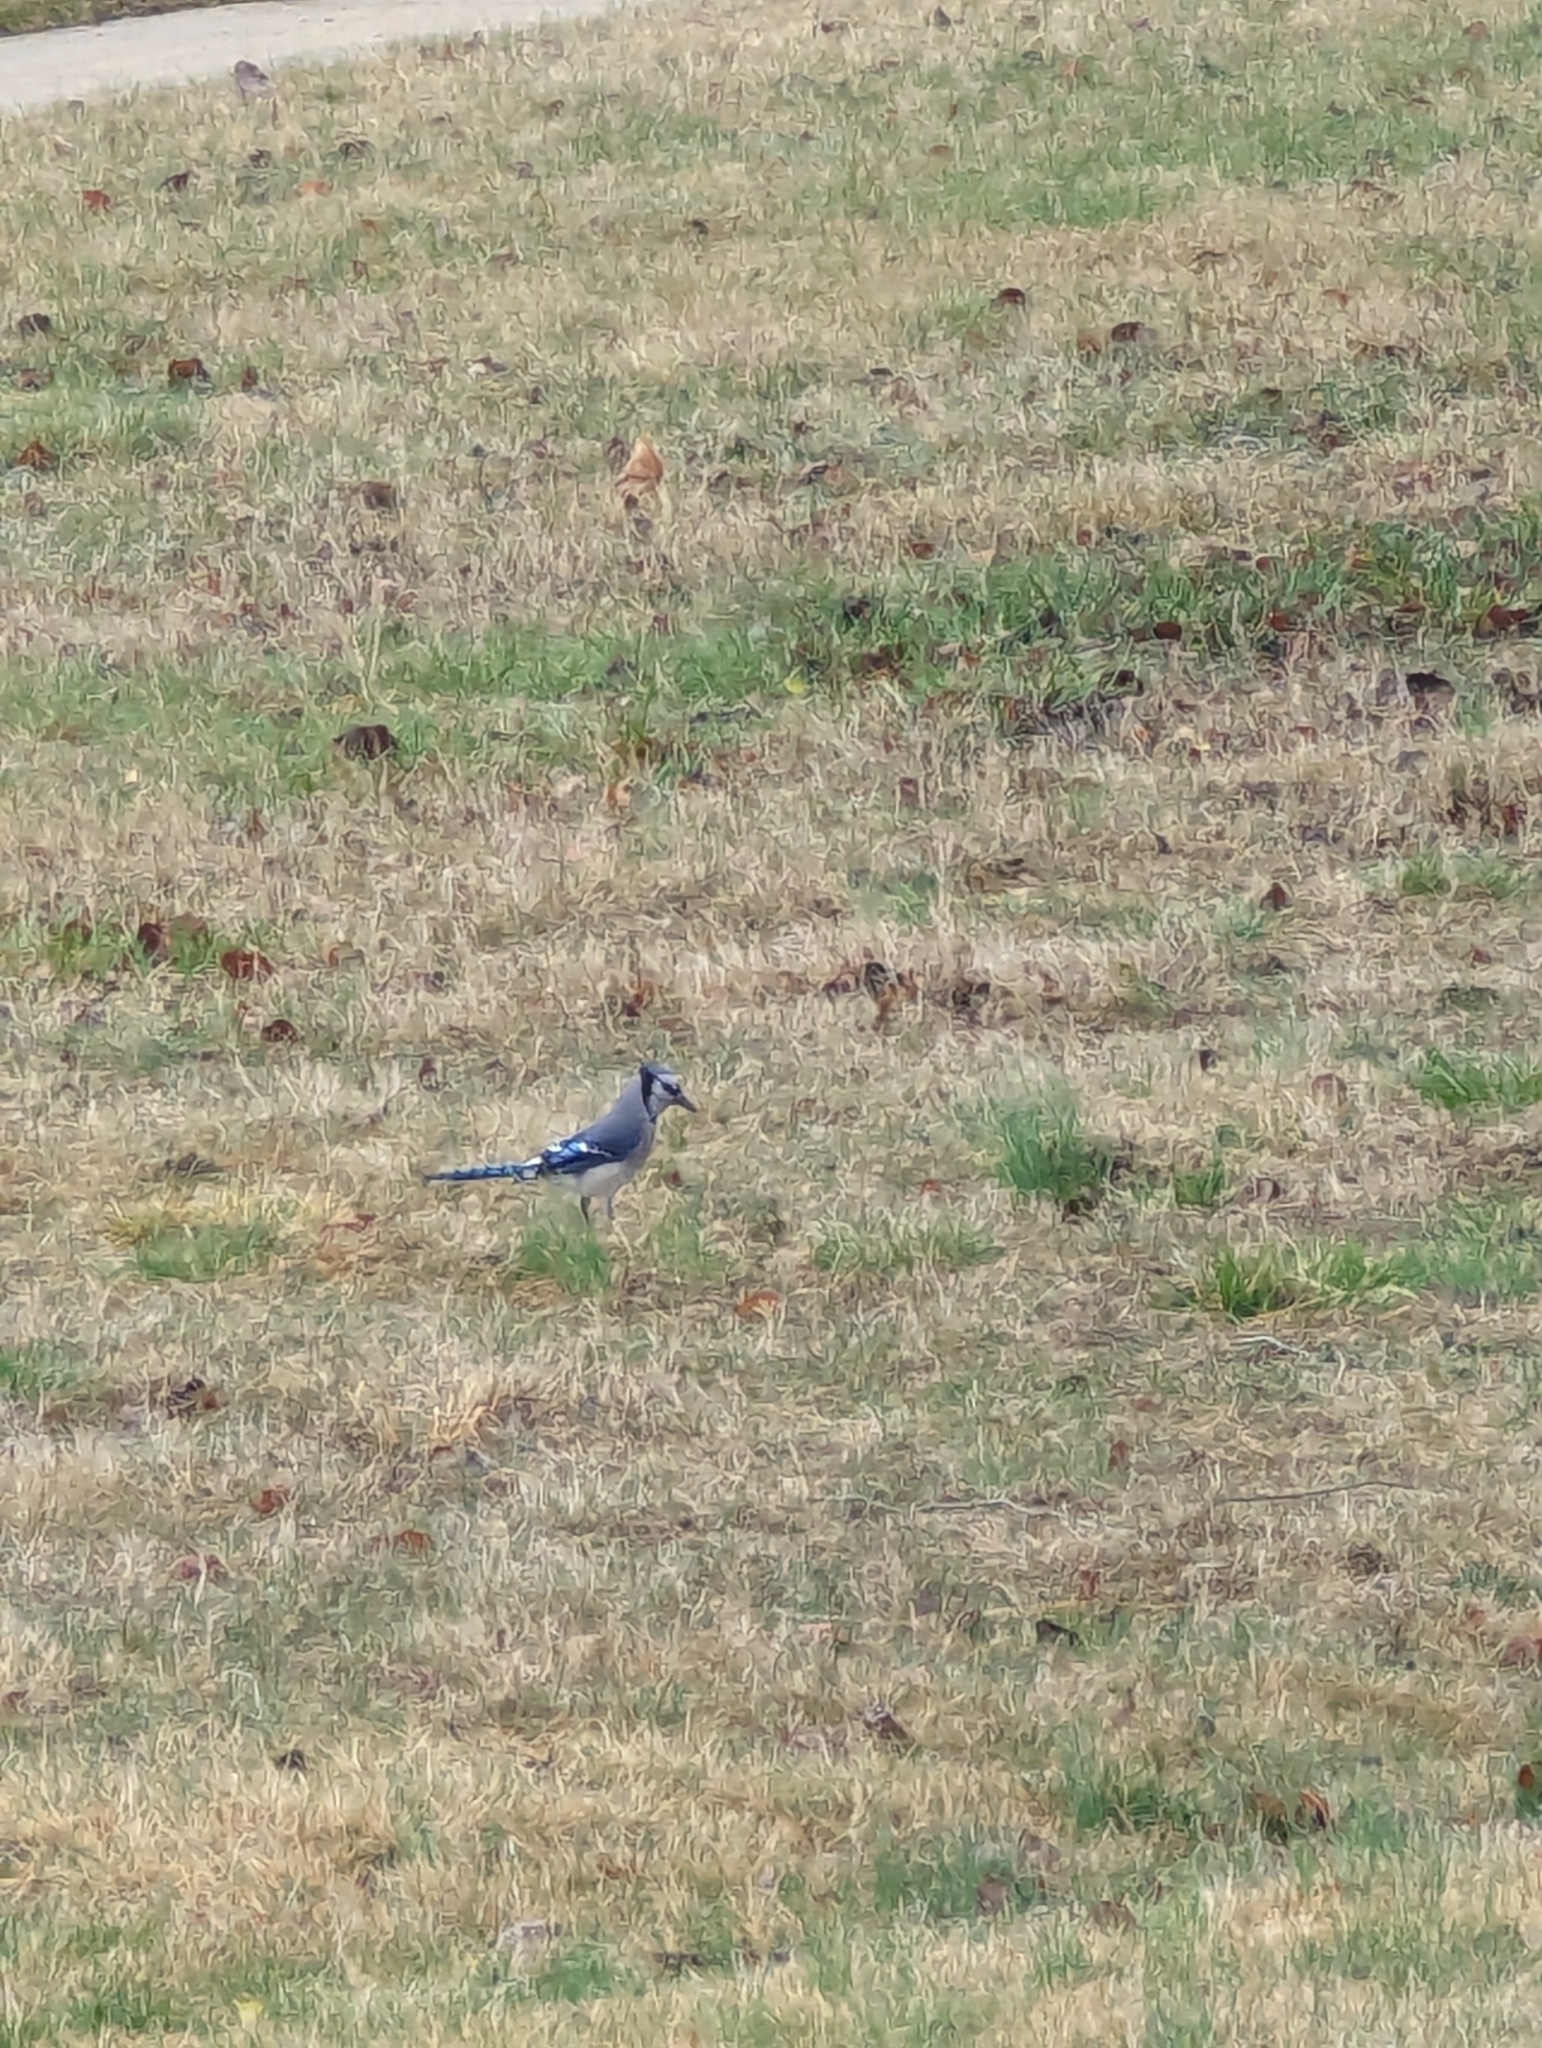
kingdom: Animalia
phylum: Chordata
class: Aves
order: Passeriformes
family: Corvidae
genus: Cyanocitta
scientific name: Cyanocitta cristata
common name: Blue jay
